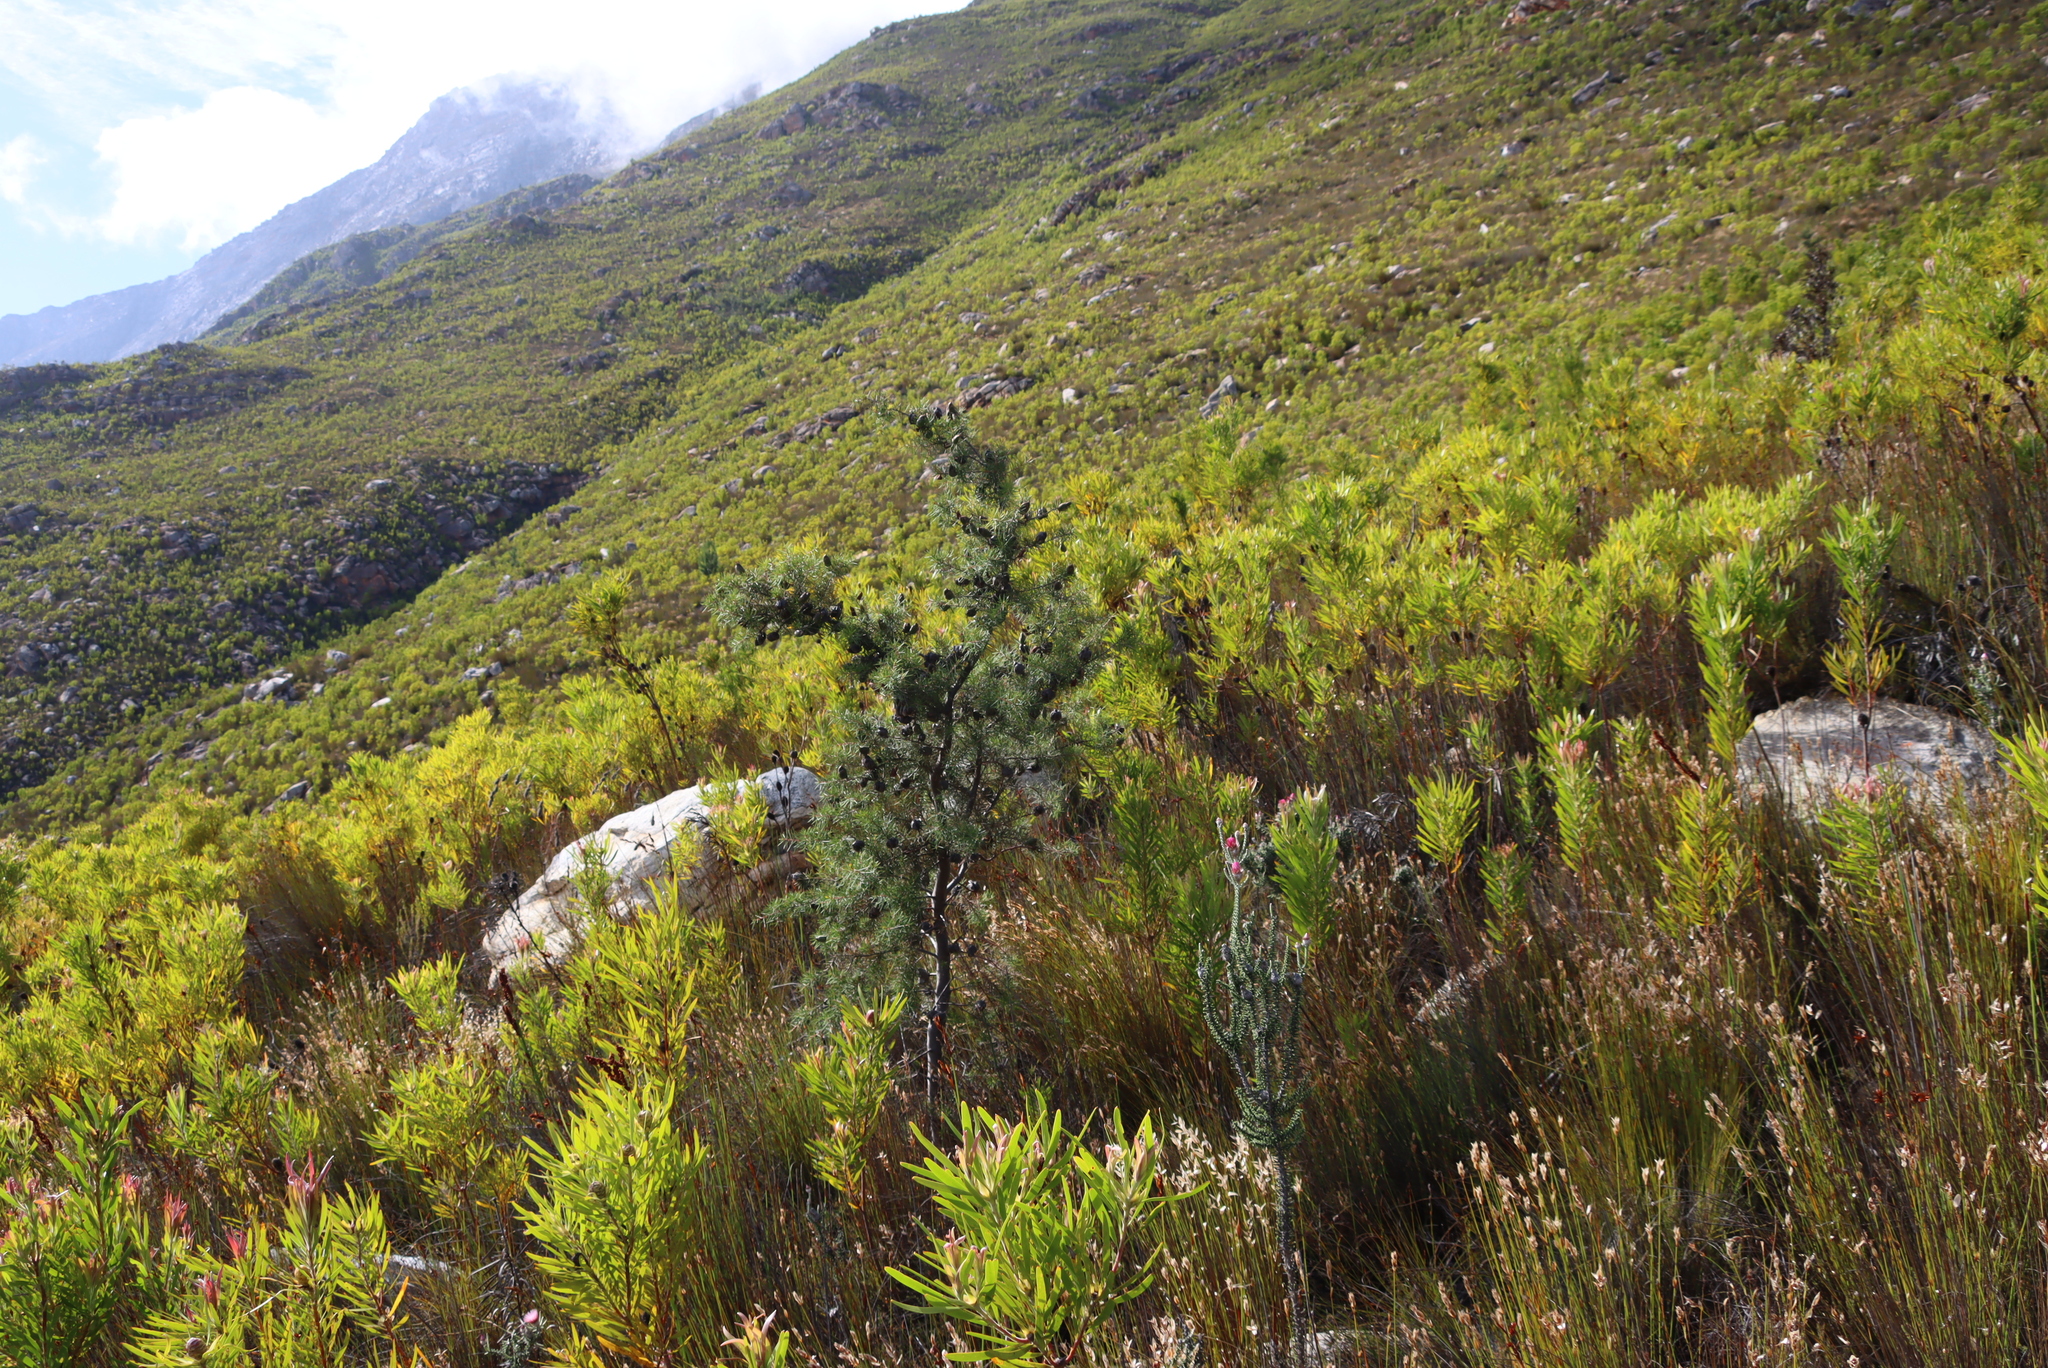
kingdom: Plantae
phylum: Tracheophyta
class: Magnoliopsida
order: Proteales
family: Proteaceae
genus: Hakea
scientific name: Hakea sericea
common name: Needle bush
